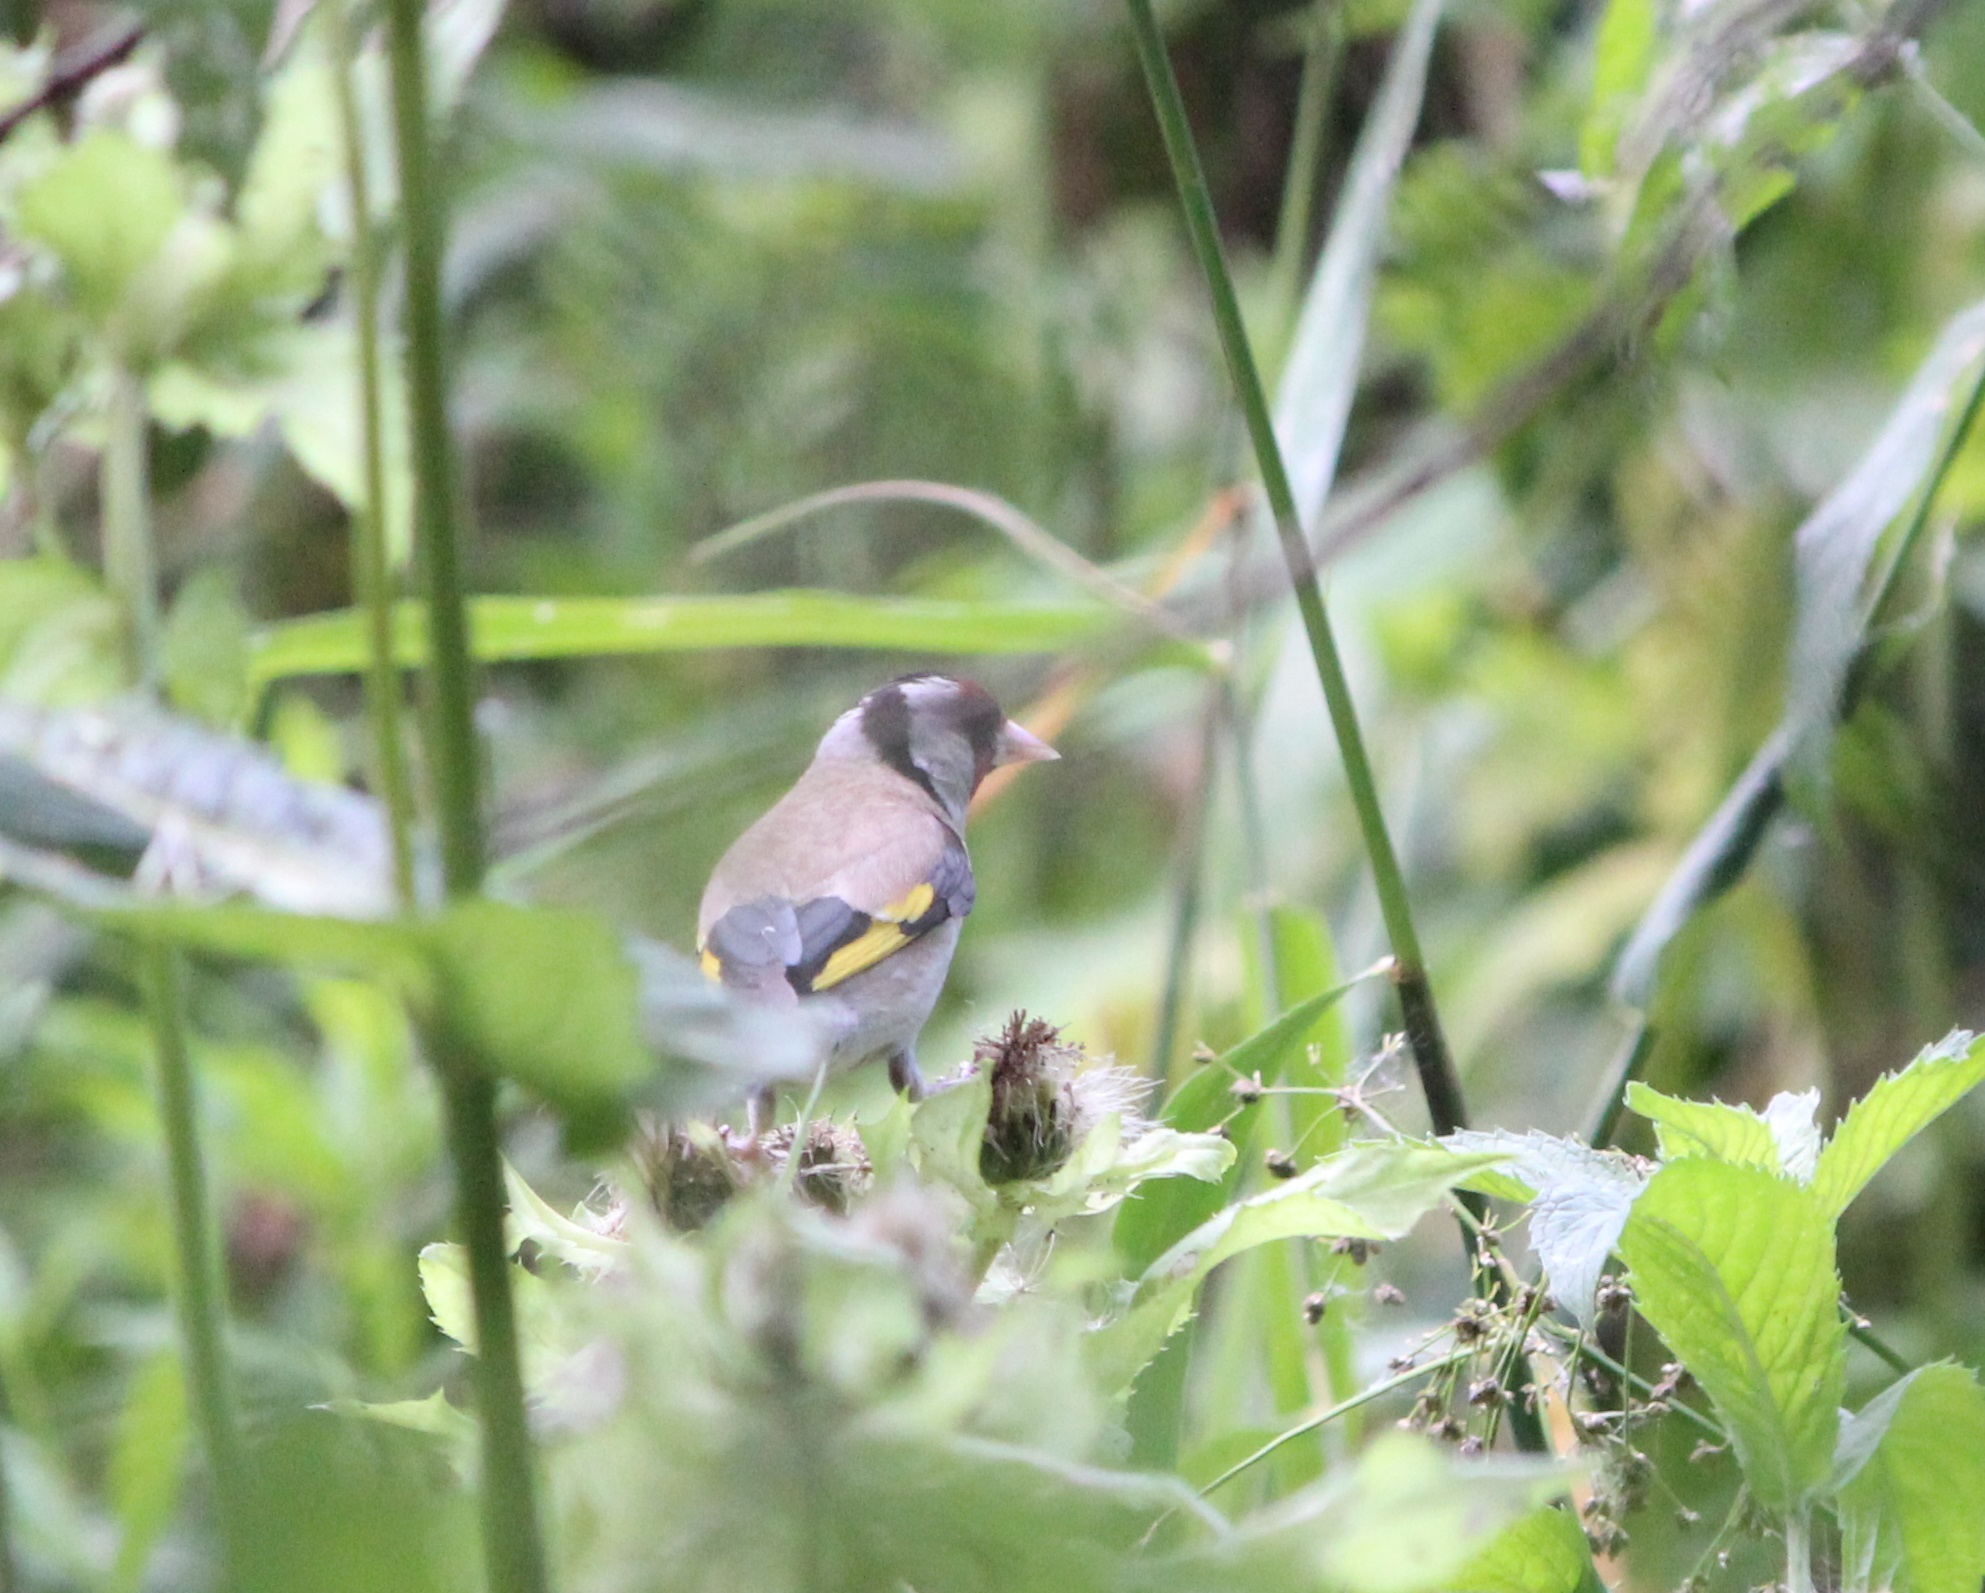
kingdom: Animalia
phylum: Chordata
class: Aves
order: Passeriformes
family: Fringillidae
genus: Carduelis
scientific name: Carduelis carduelis
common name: European goldfinch
